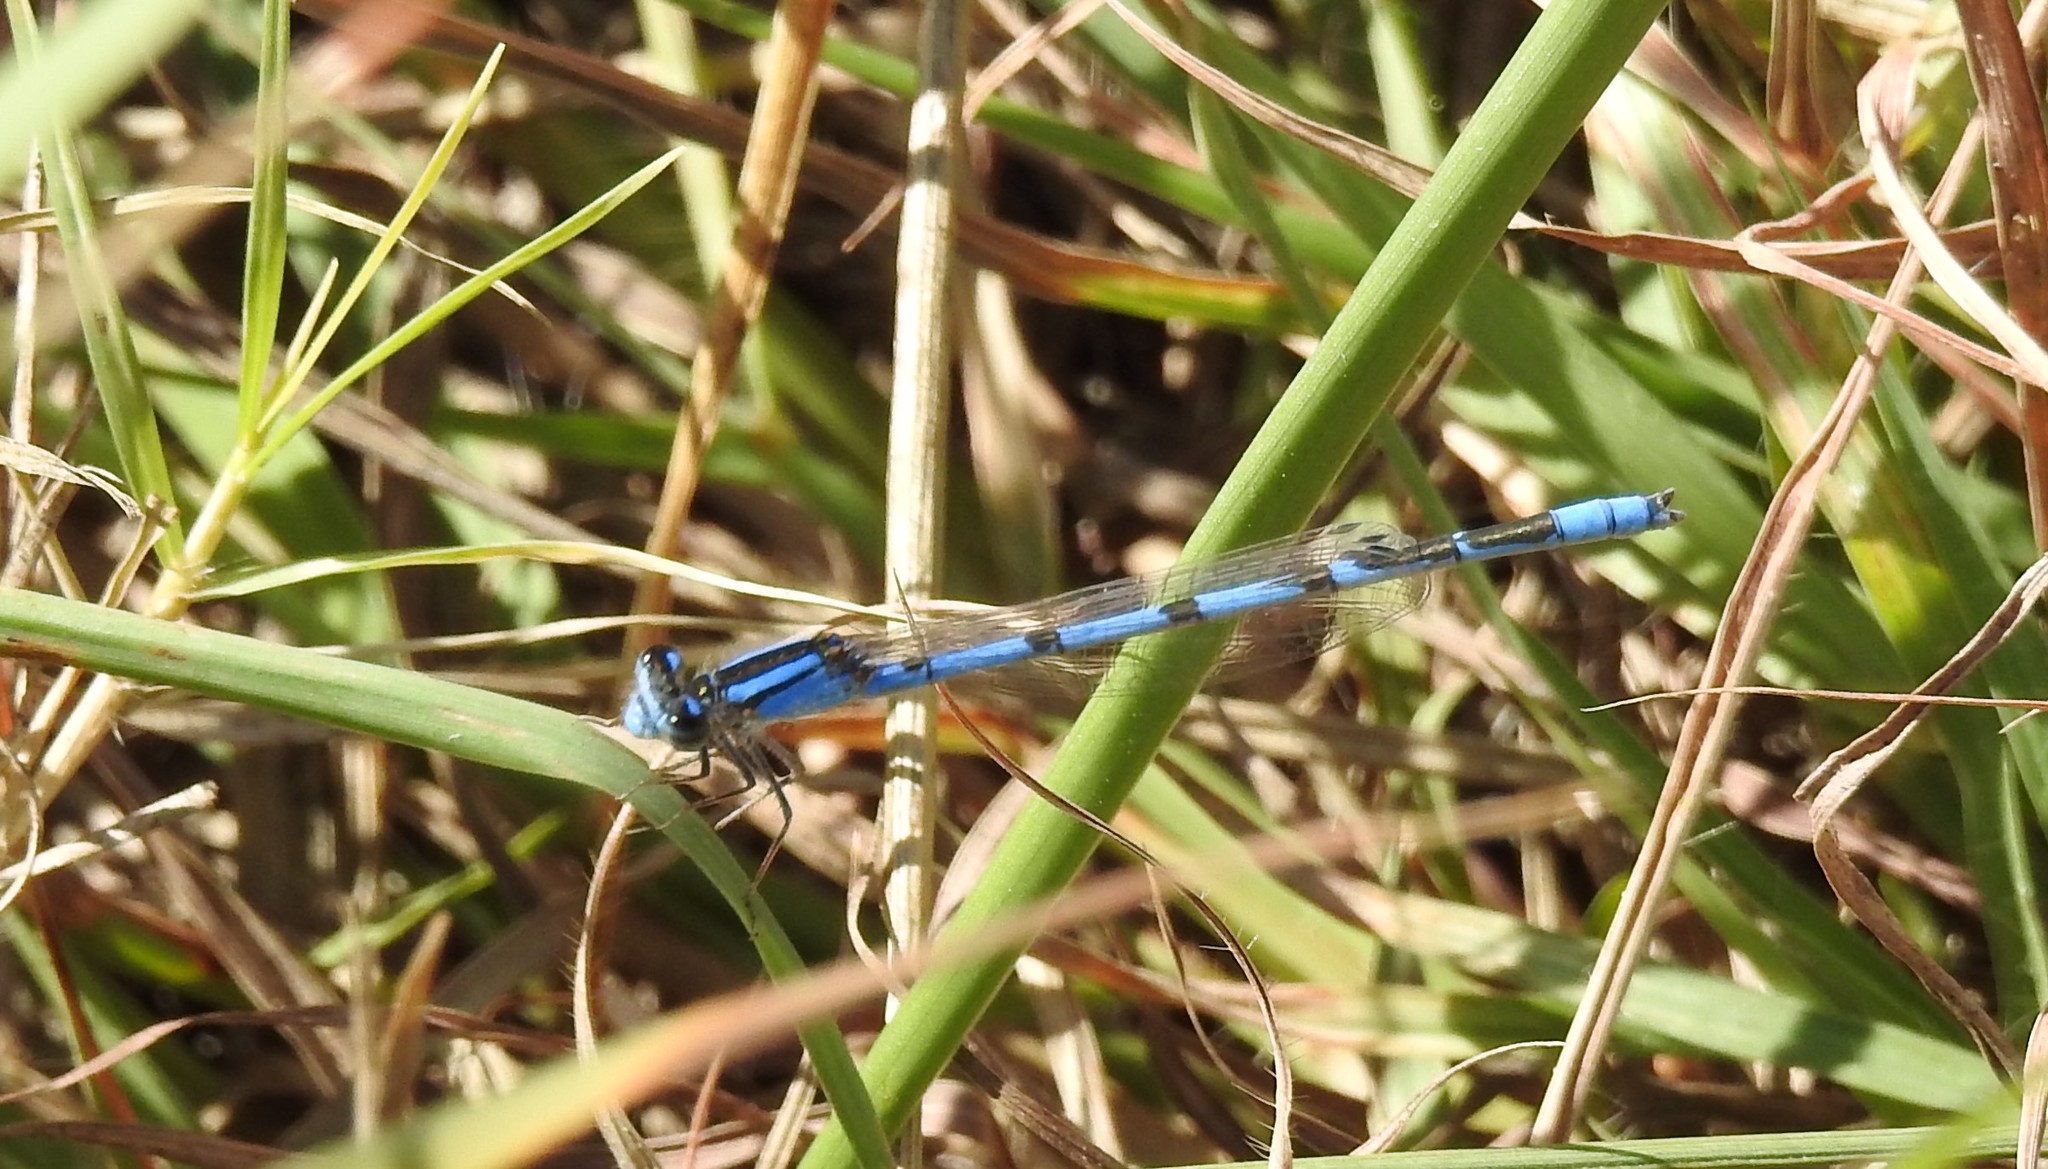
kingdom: Animalia
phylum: Arthropoda
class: Insecta
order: Odonata
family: Coenagrionidae
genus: Enallagma
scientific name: Enallagma civile
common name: Damselfly
